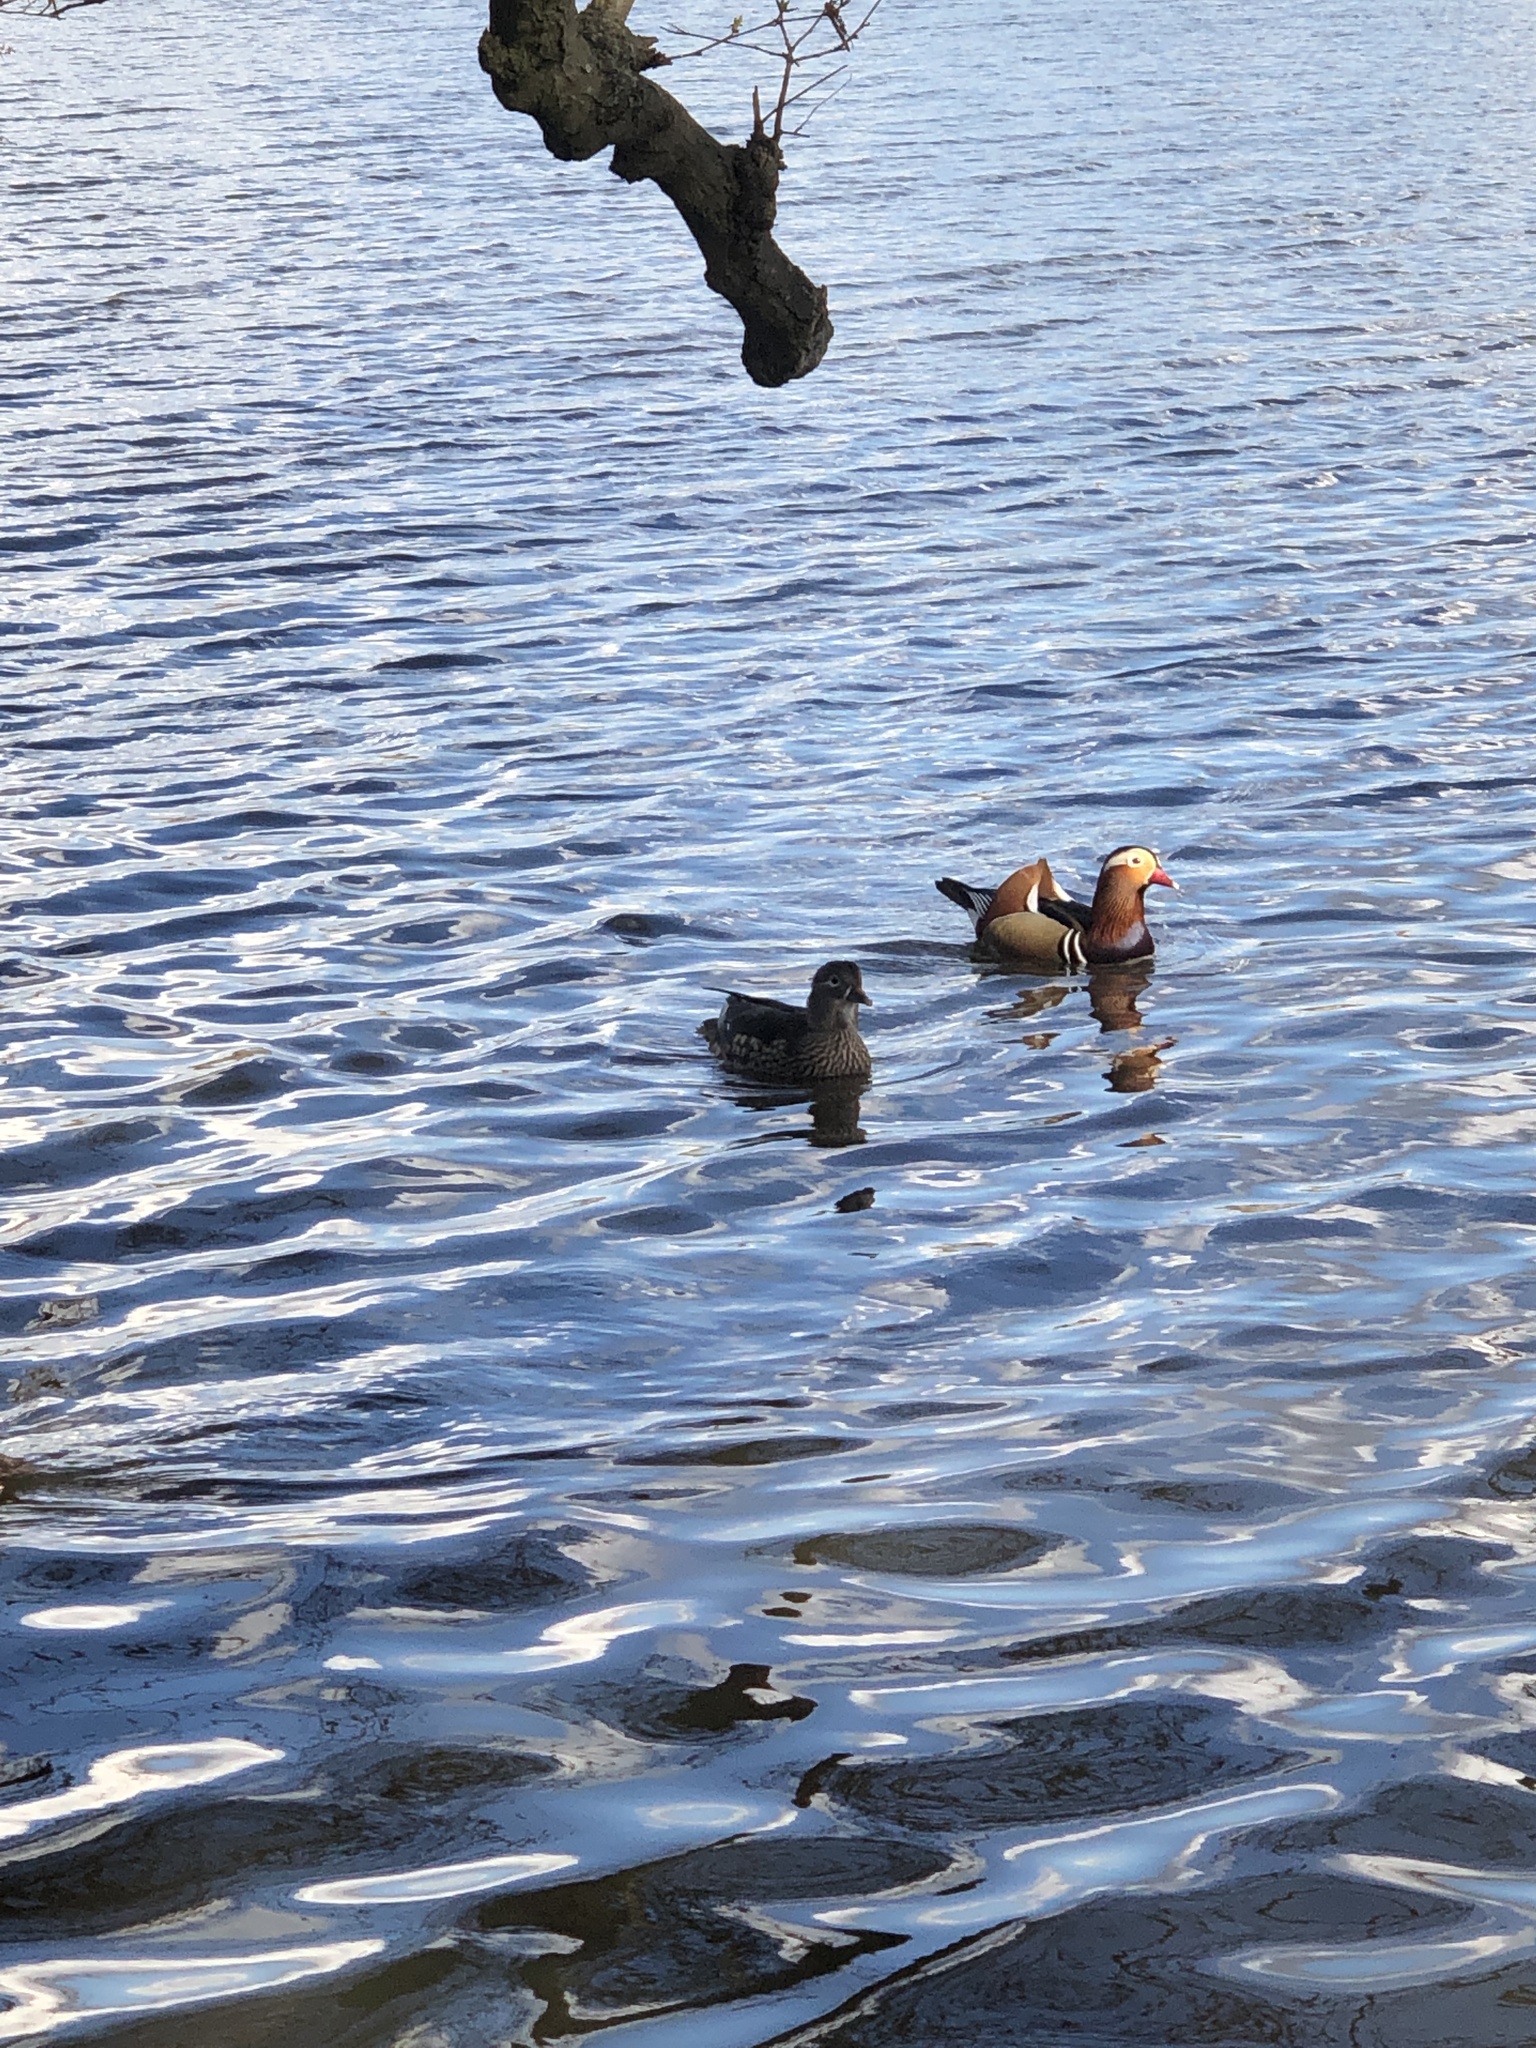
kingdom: Animalia
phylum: Chordata
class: Aves
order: Anseriformes
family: Anatidae
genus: Aix
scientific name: Aix galericulata
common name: Mandarin duck
